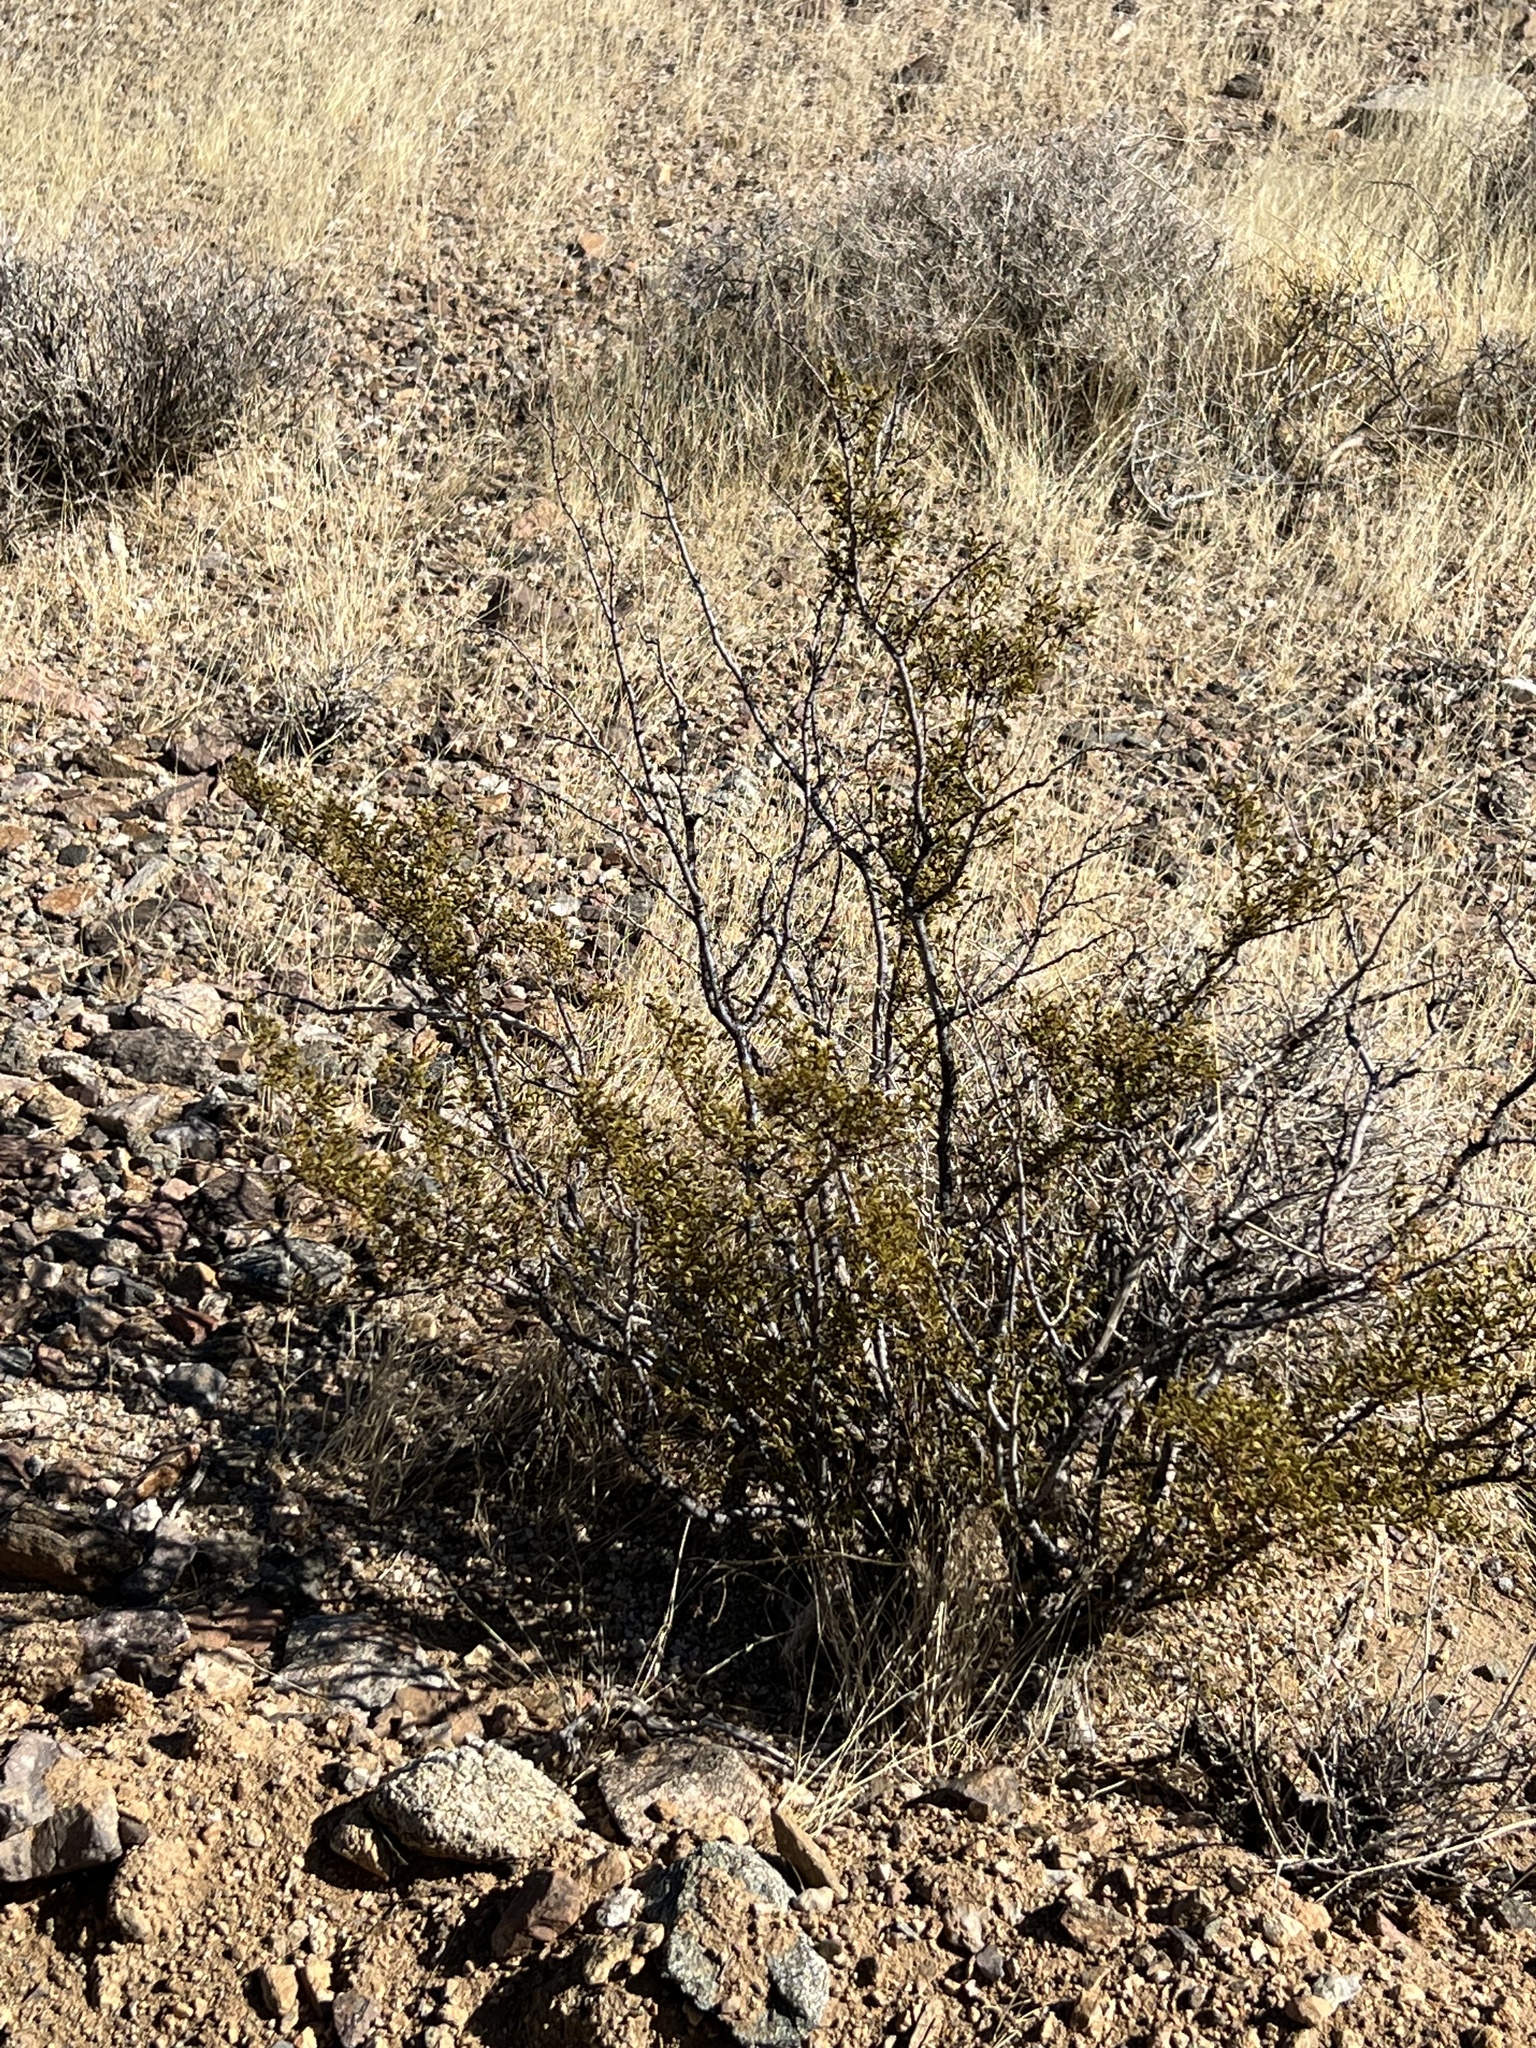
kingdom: Plantae
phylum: Tracheophyta
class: Magnoliopsida
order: Zygophyllales
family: Zygophyllaceae
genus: Larrea
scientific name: Larrea tridentata
